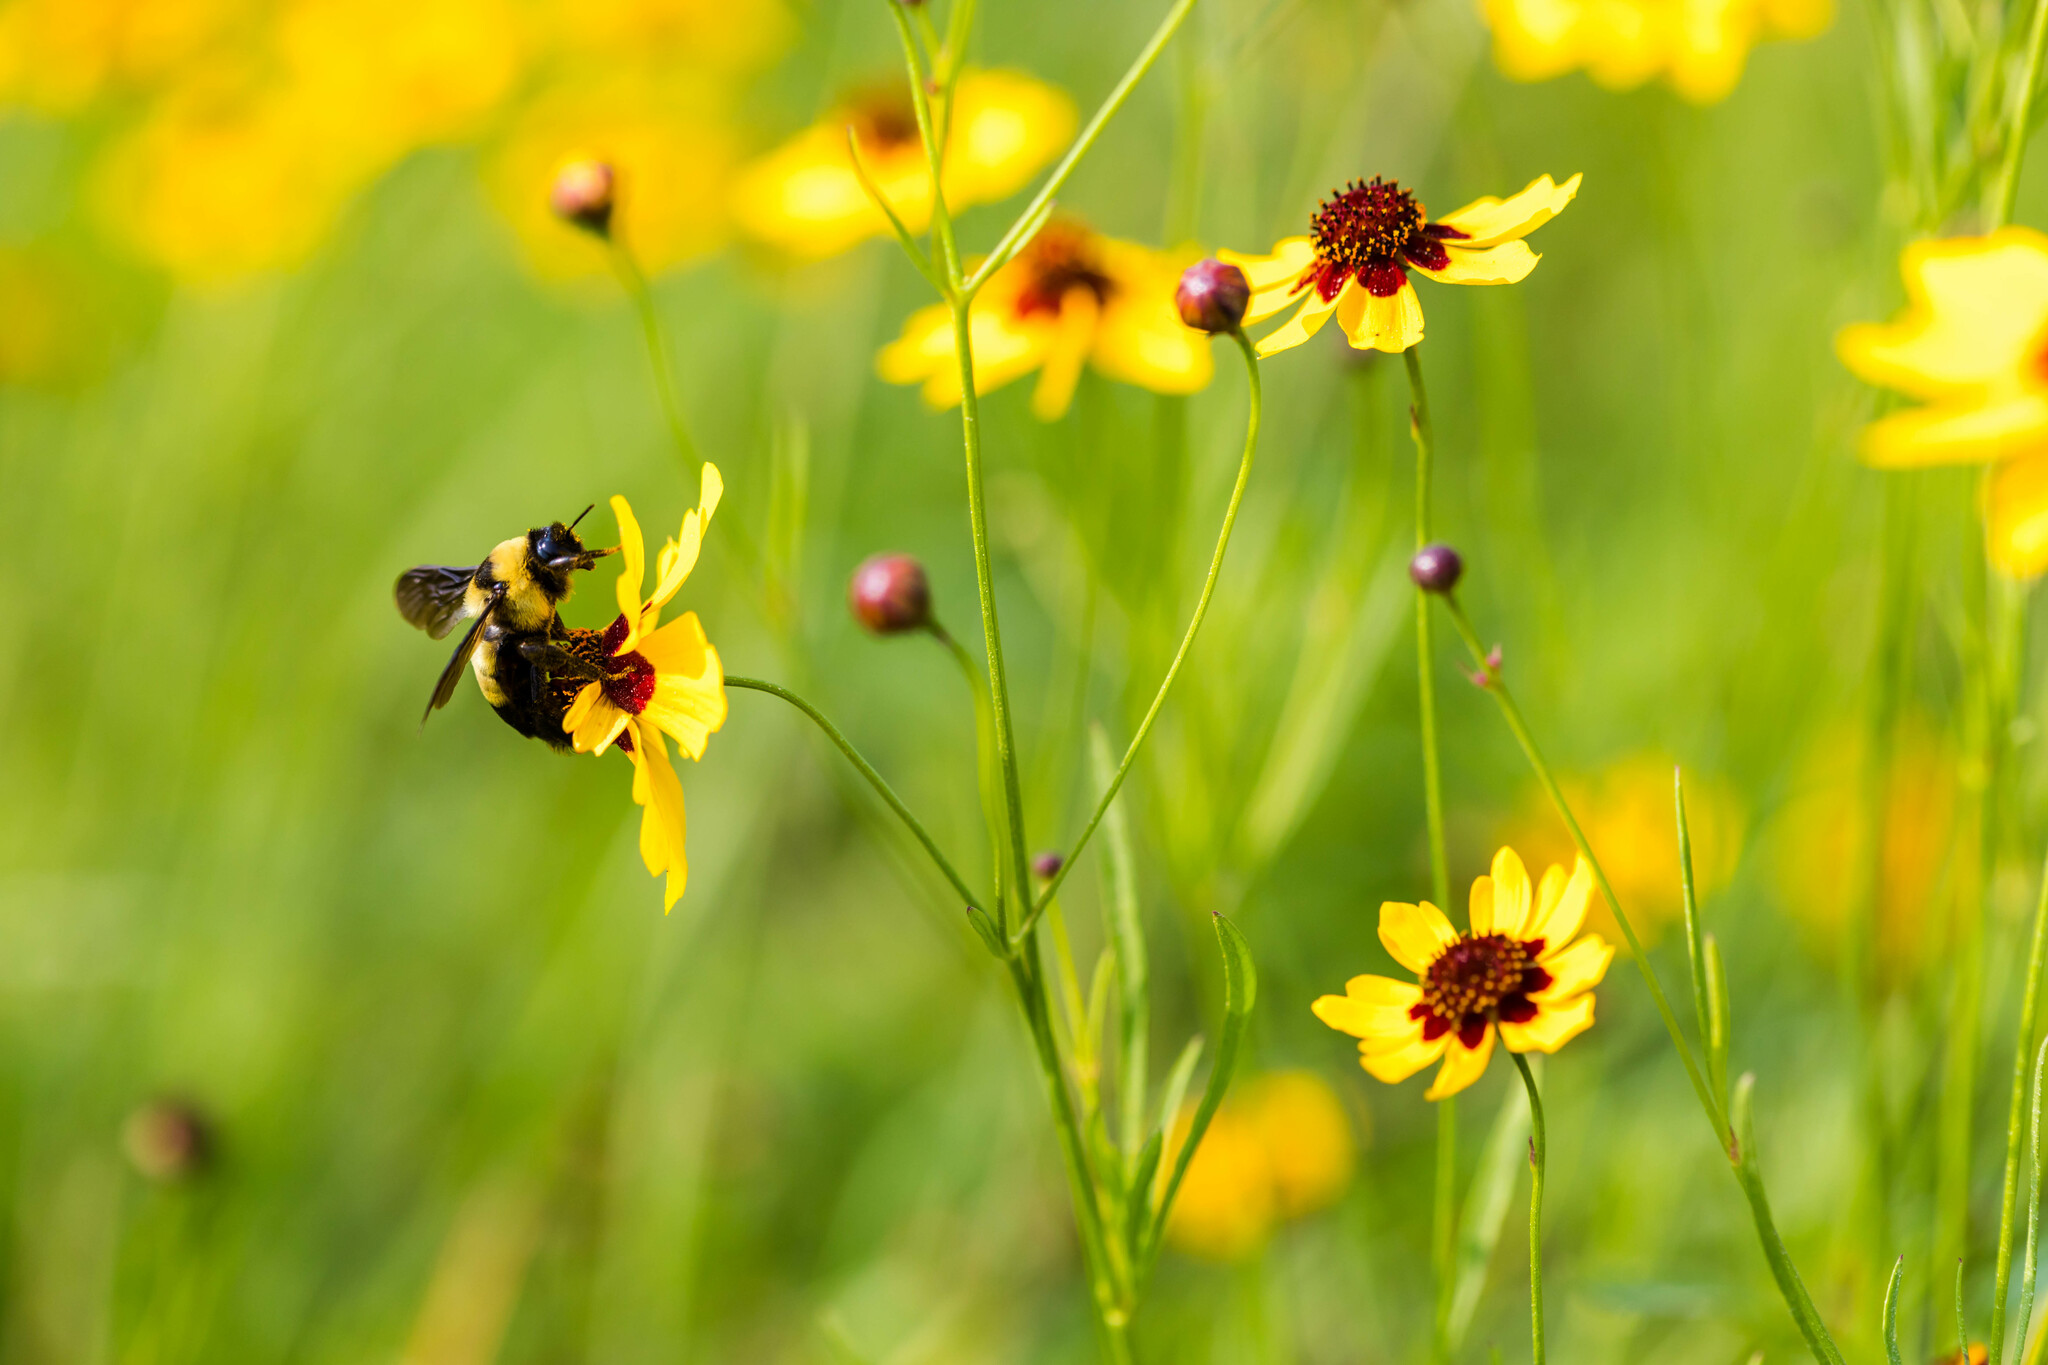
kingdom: Animalia
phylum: Arthropoda
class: Insecta
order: Hymenoptera
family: Apidae
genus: Bombus
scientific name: Bombus fraternus
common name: Southern plains bumble bee
